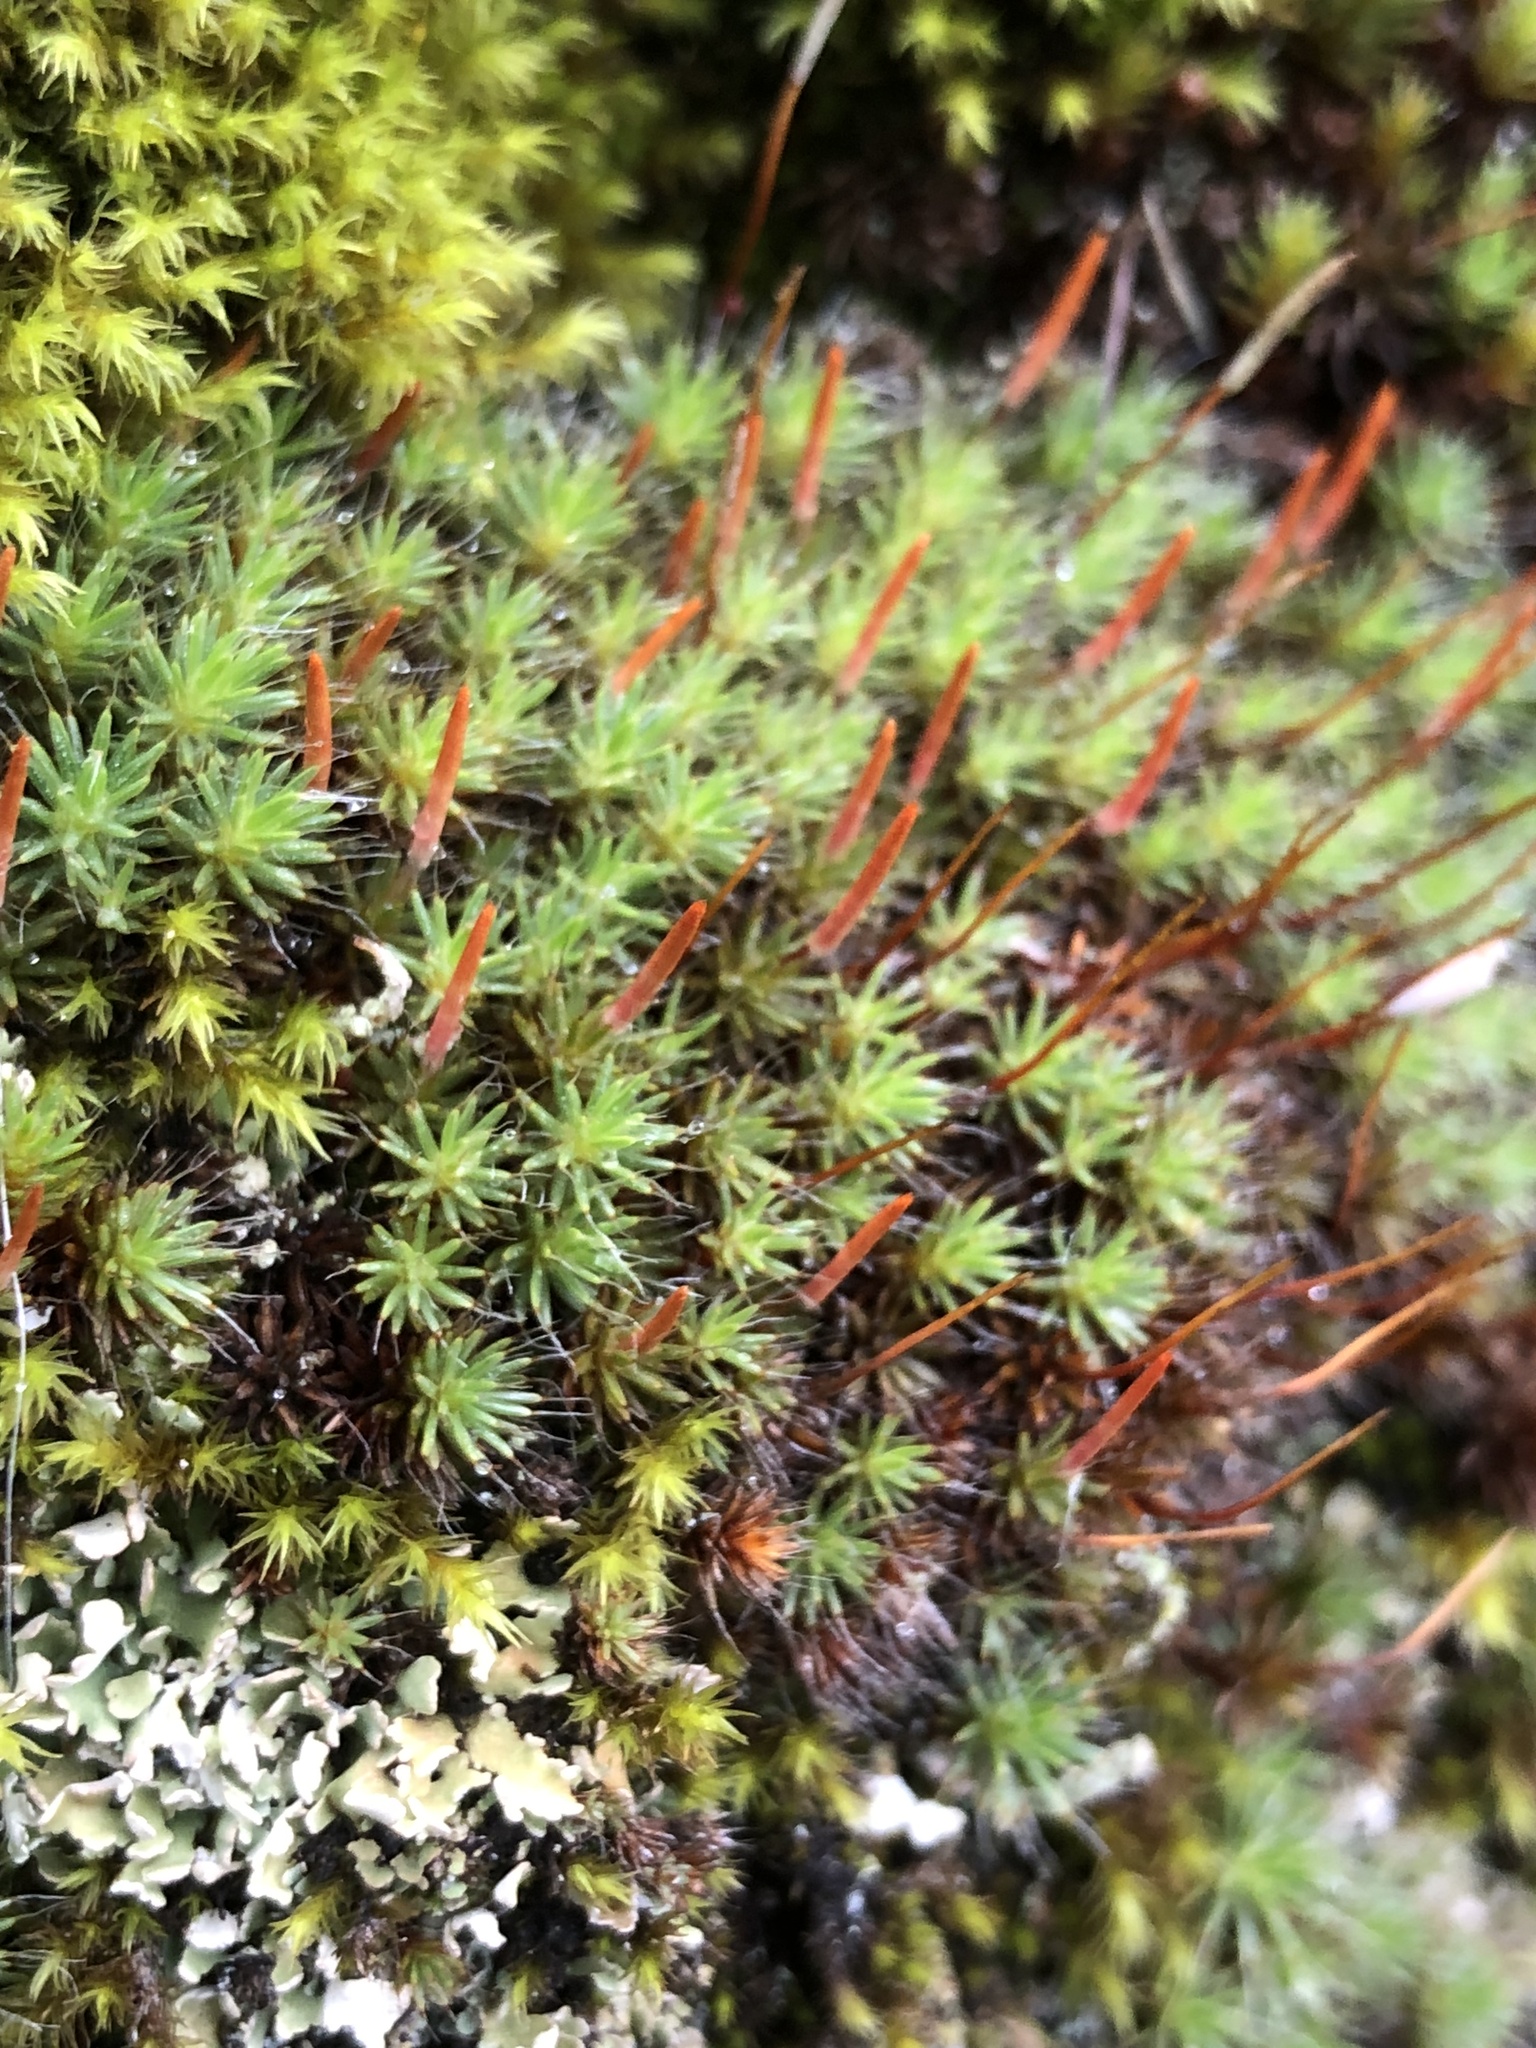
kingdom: Plantae
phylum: Bryophyta
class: Polytrichopsida
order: Polytrichales
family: Polytrichaceae
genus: Polytrichum
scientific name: Polytrichum piliferum
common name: Bristly haircap
